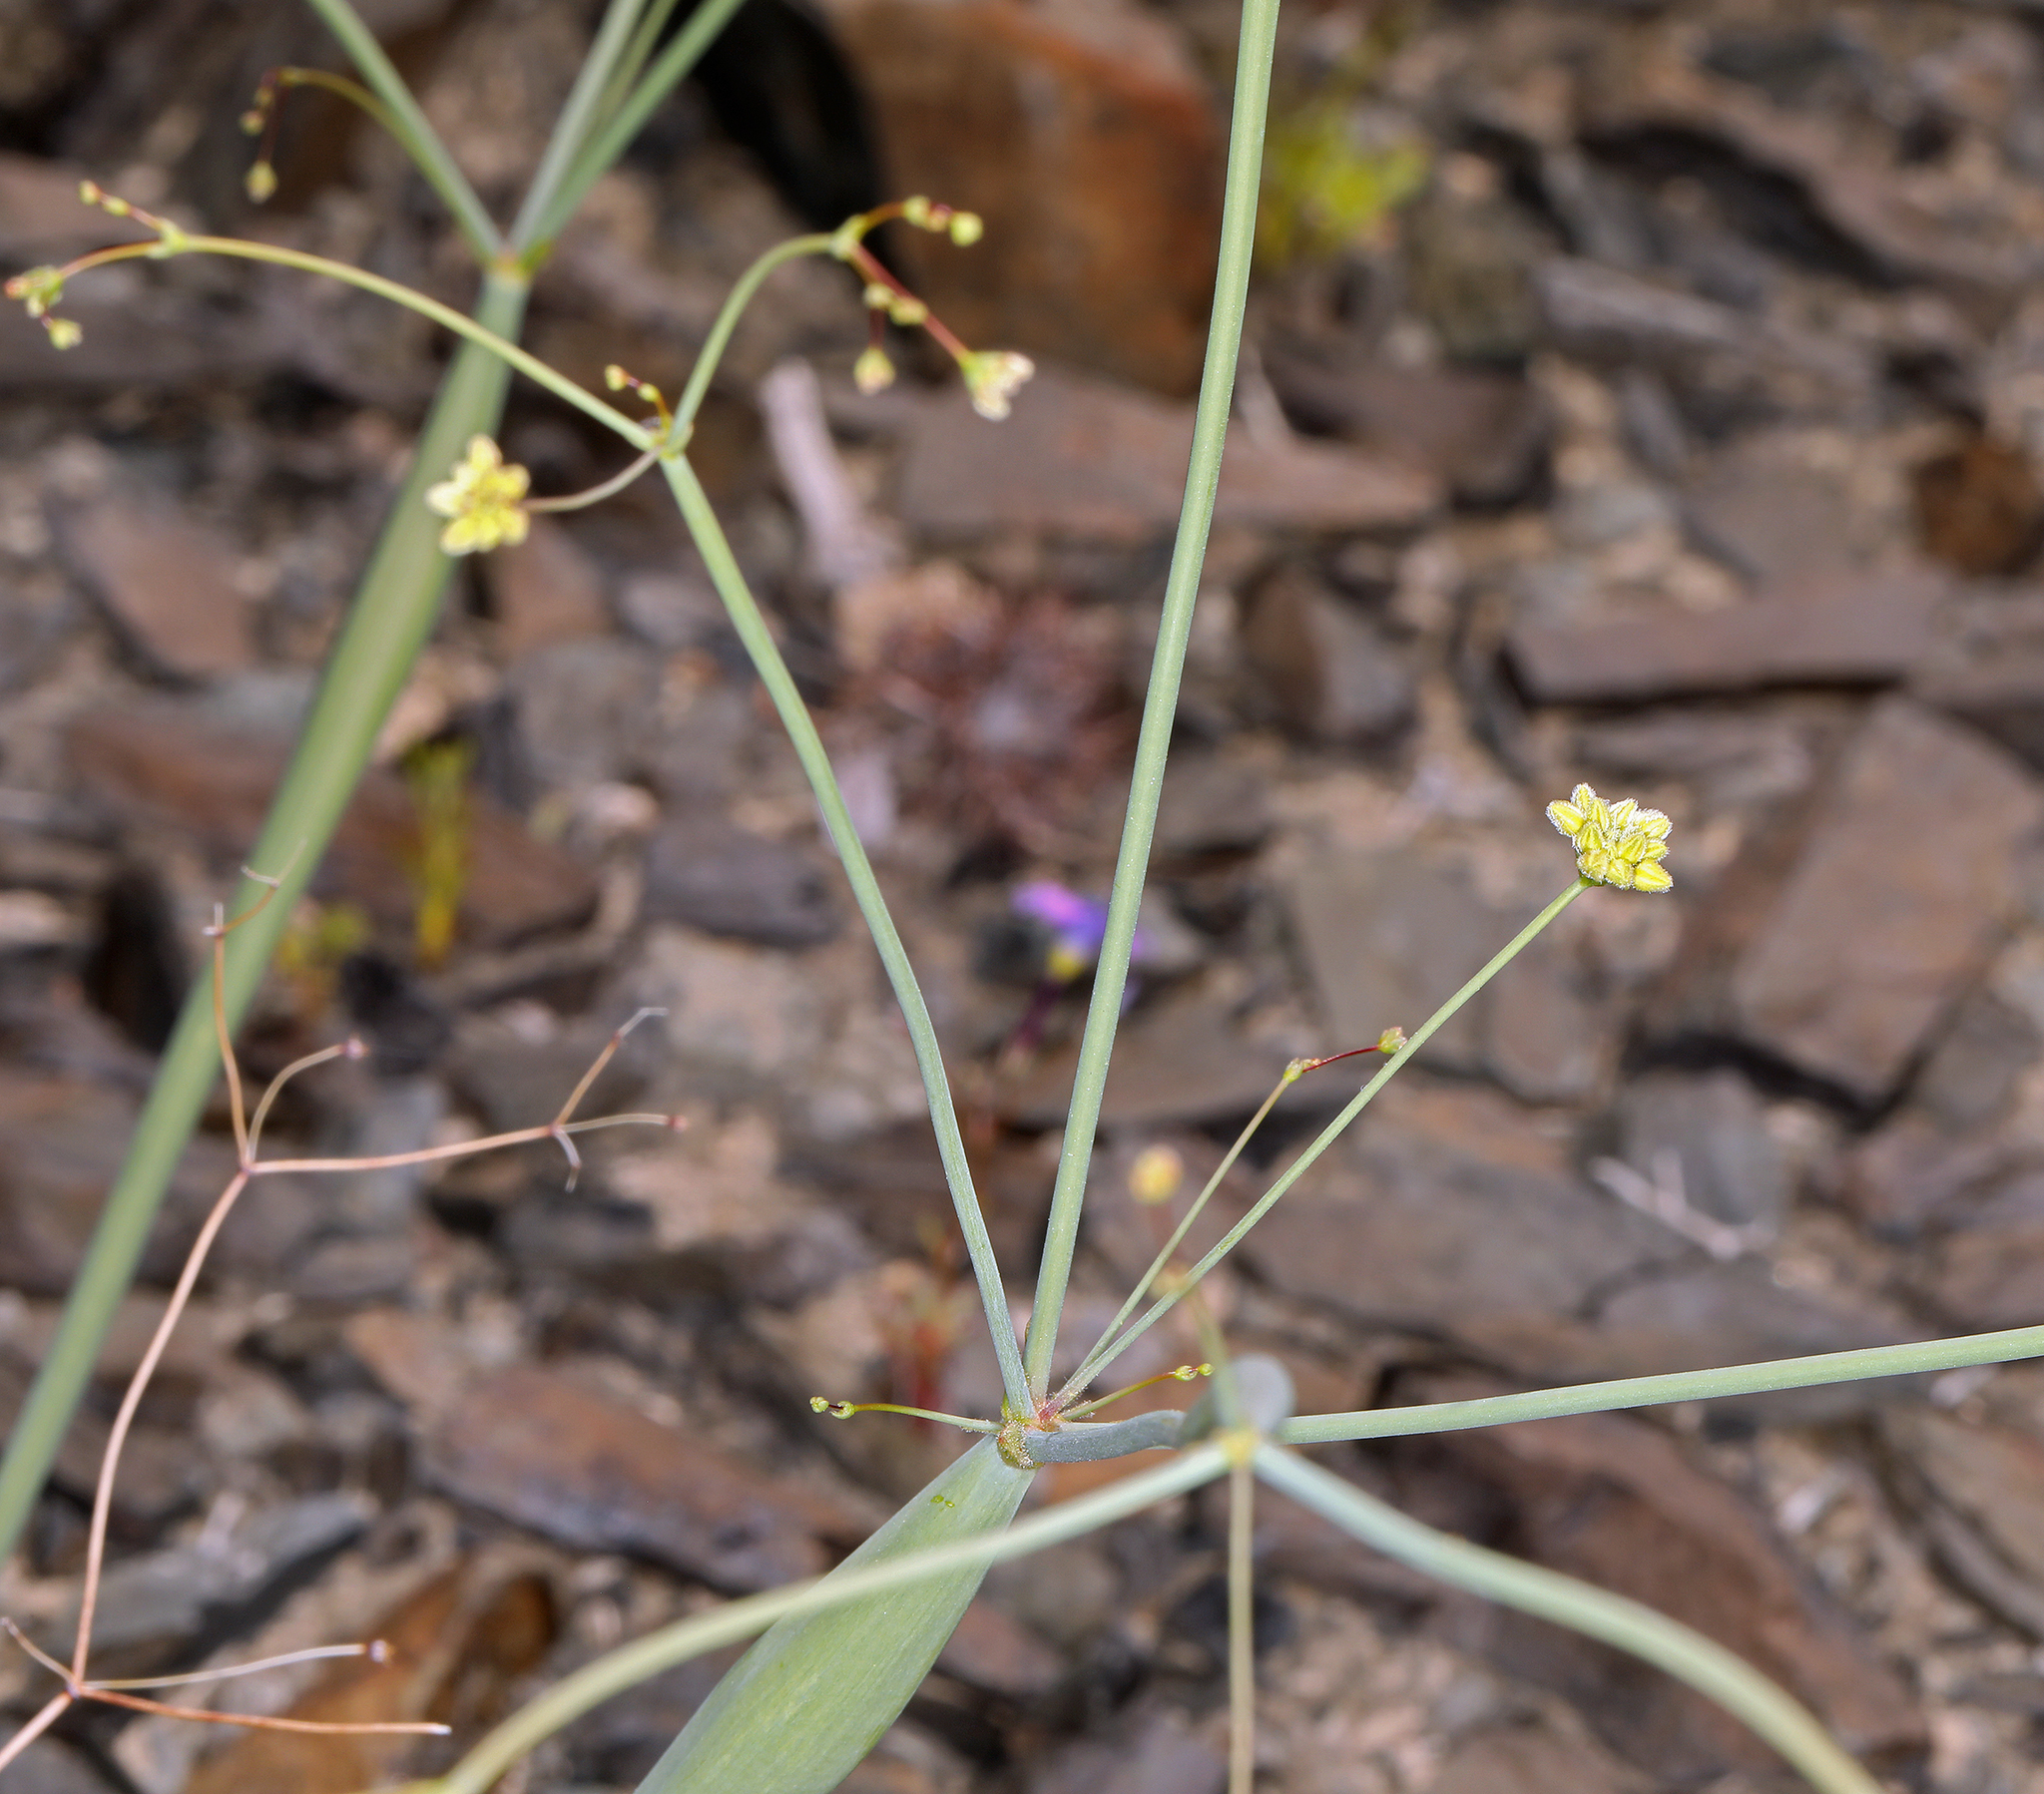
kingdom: Plantae
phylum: Tracheophyta
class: Magnoliopsida
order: Caryophyllales
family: Polygonaceae
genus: Eriogonum
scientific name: Eriogonum inflatum
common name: Desert trumpet
